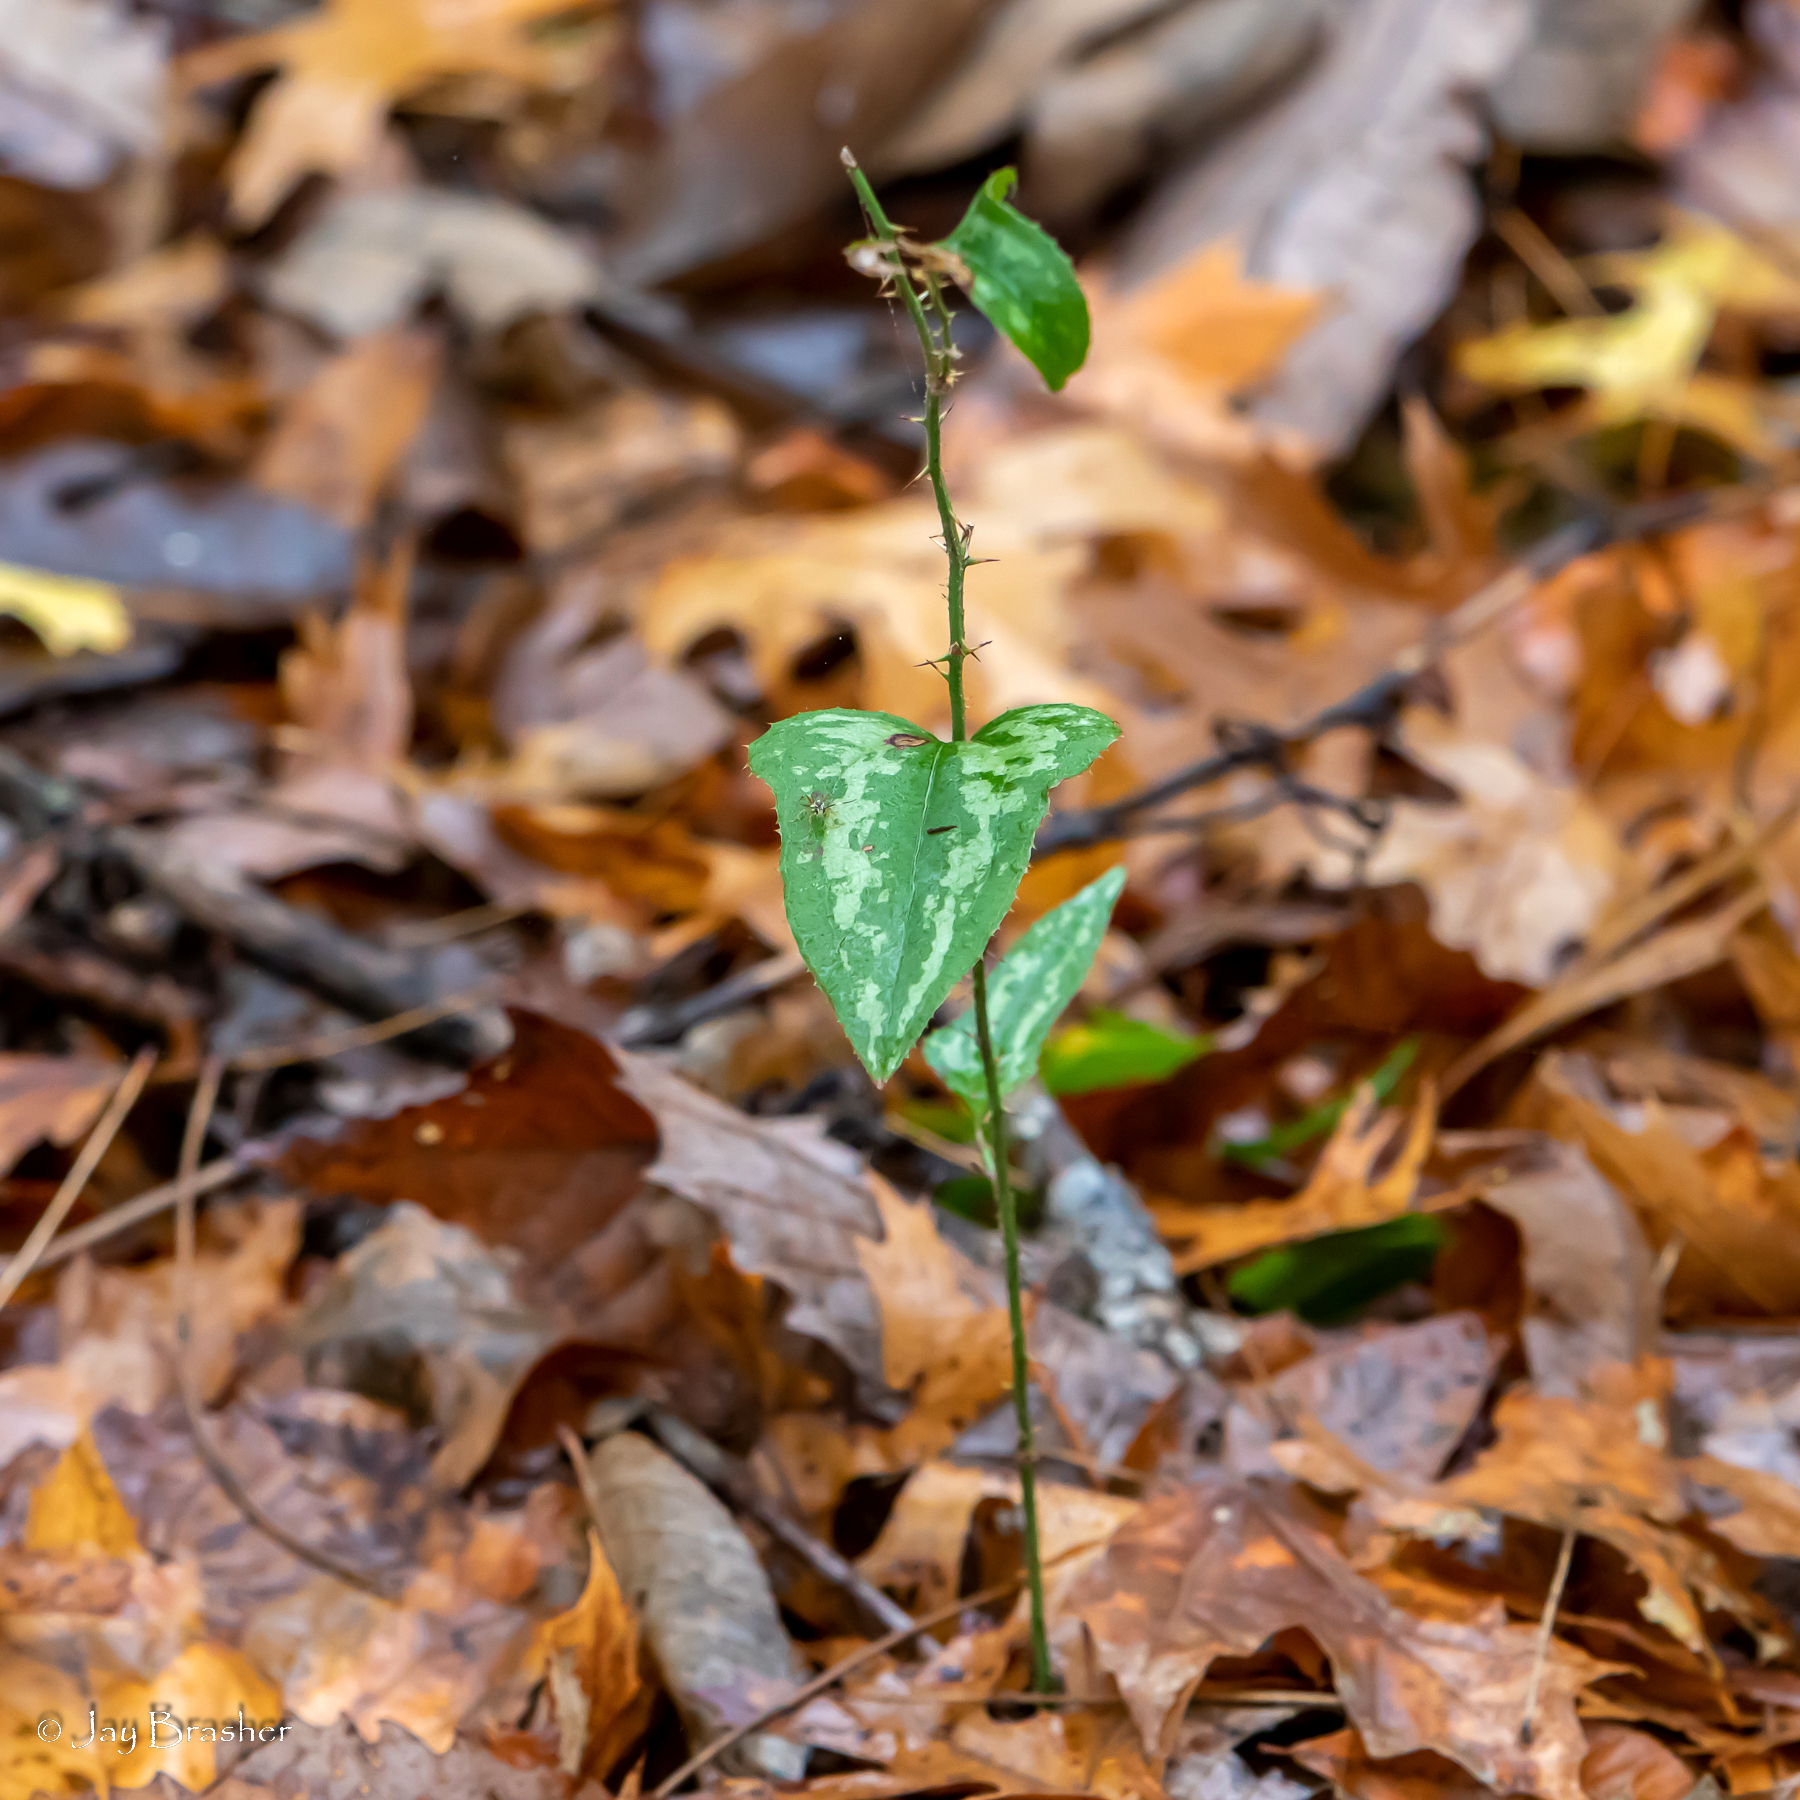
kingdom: Plantae
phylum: Tracheophyta
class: Liliopsida
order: Liliales
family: Smilacaceae
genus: Smilax
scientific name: Smilax bona-nox
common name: Catbrier
